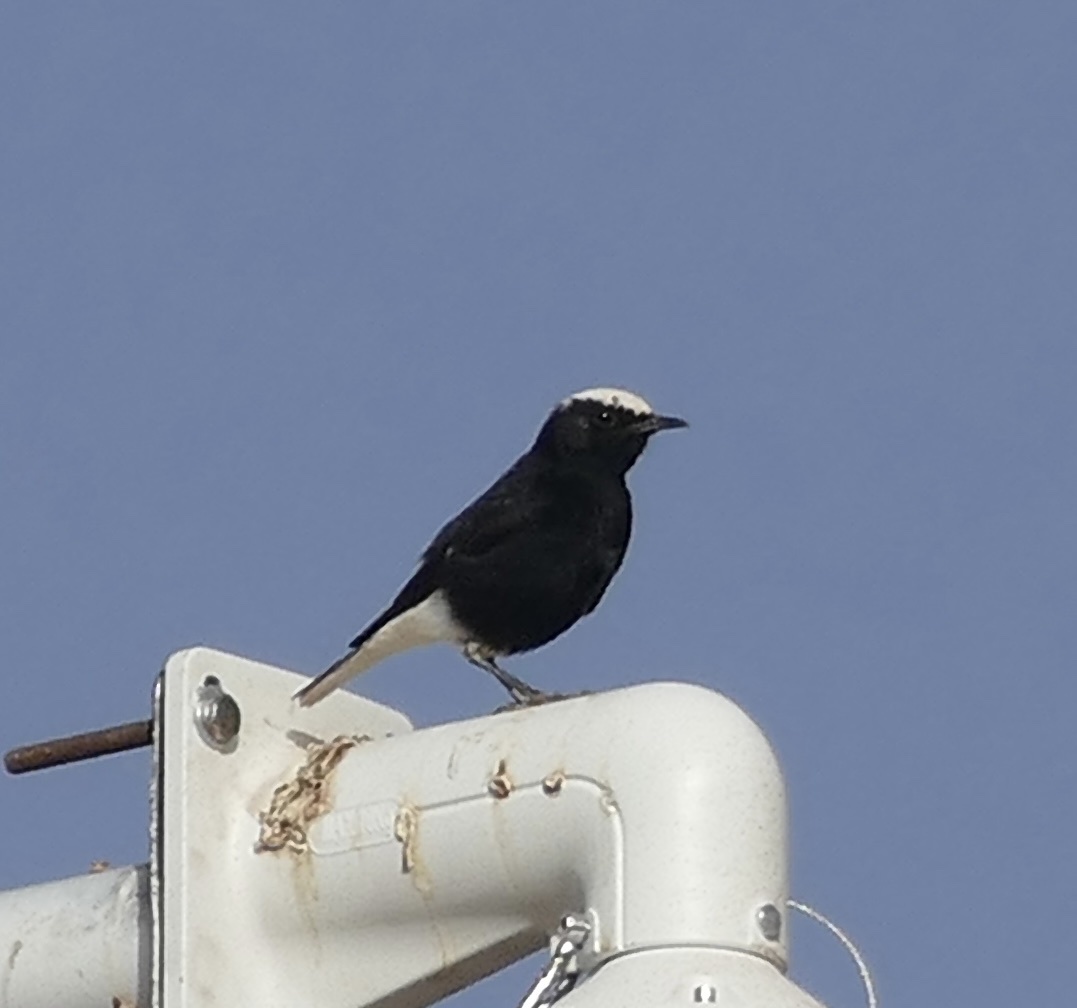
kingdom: Animalia
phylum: Chordata
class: Aves
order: Passeriformes
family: Muscicapidae
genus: Oenanthe
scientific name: Oenanthe leucopyga
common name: White-crowned wheatear
